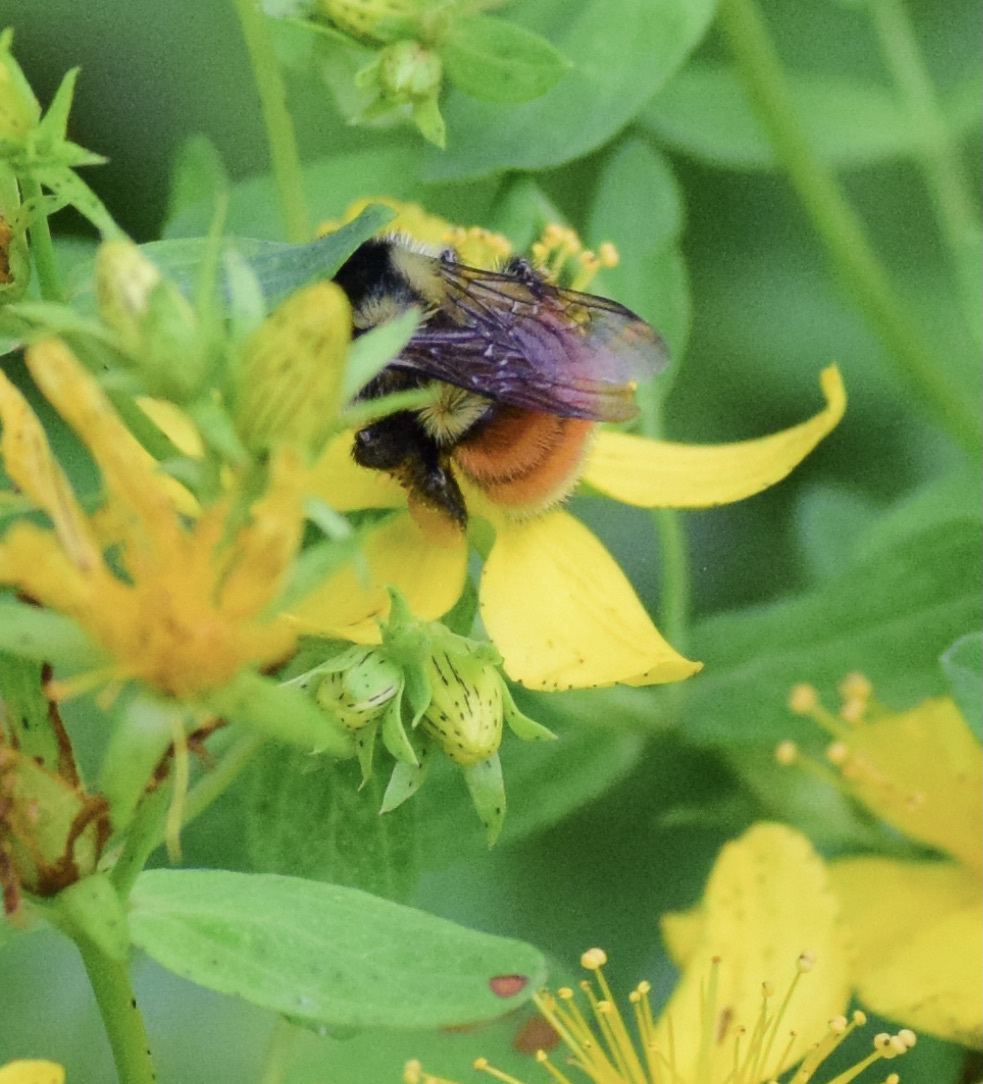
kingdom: Animalia
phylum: Arthropoda
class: Insecta
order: Hymenoptera
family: Apidae
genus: Bombus
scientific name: Bombus ternarius
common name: Tri-colored bumble bee
